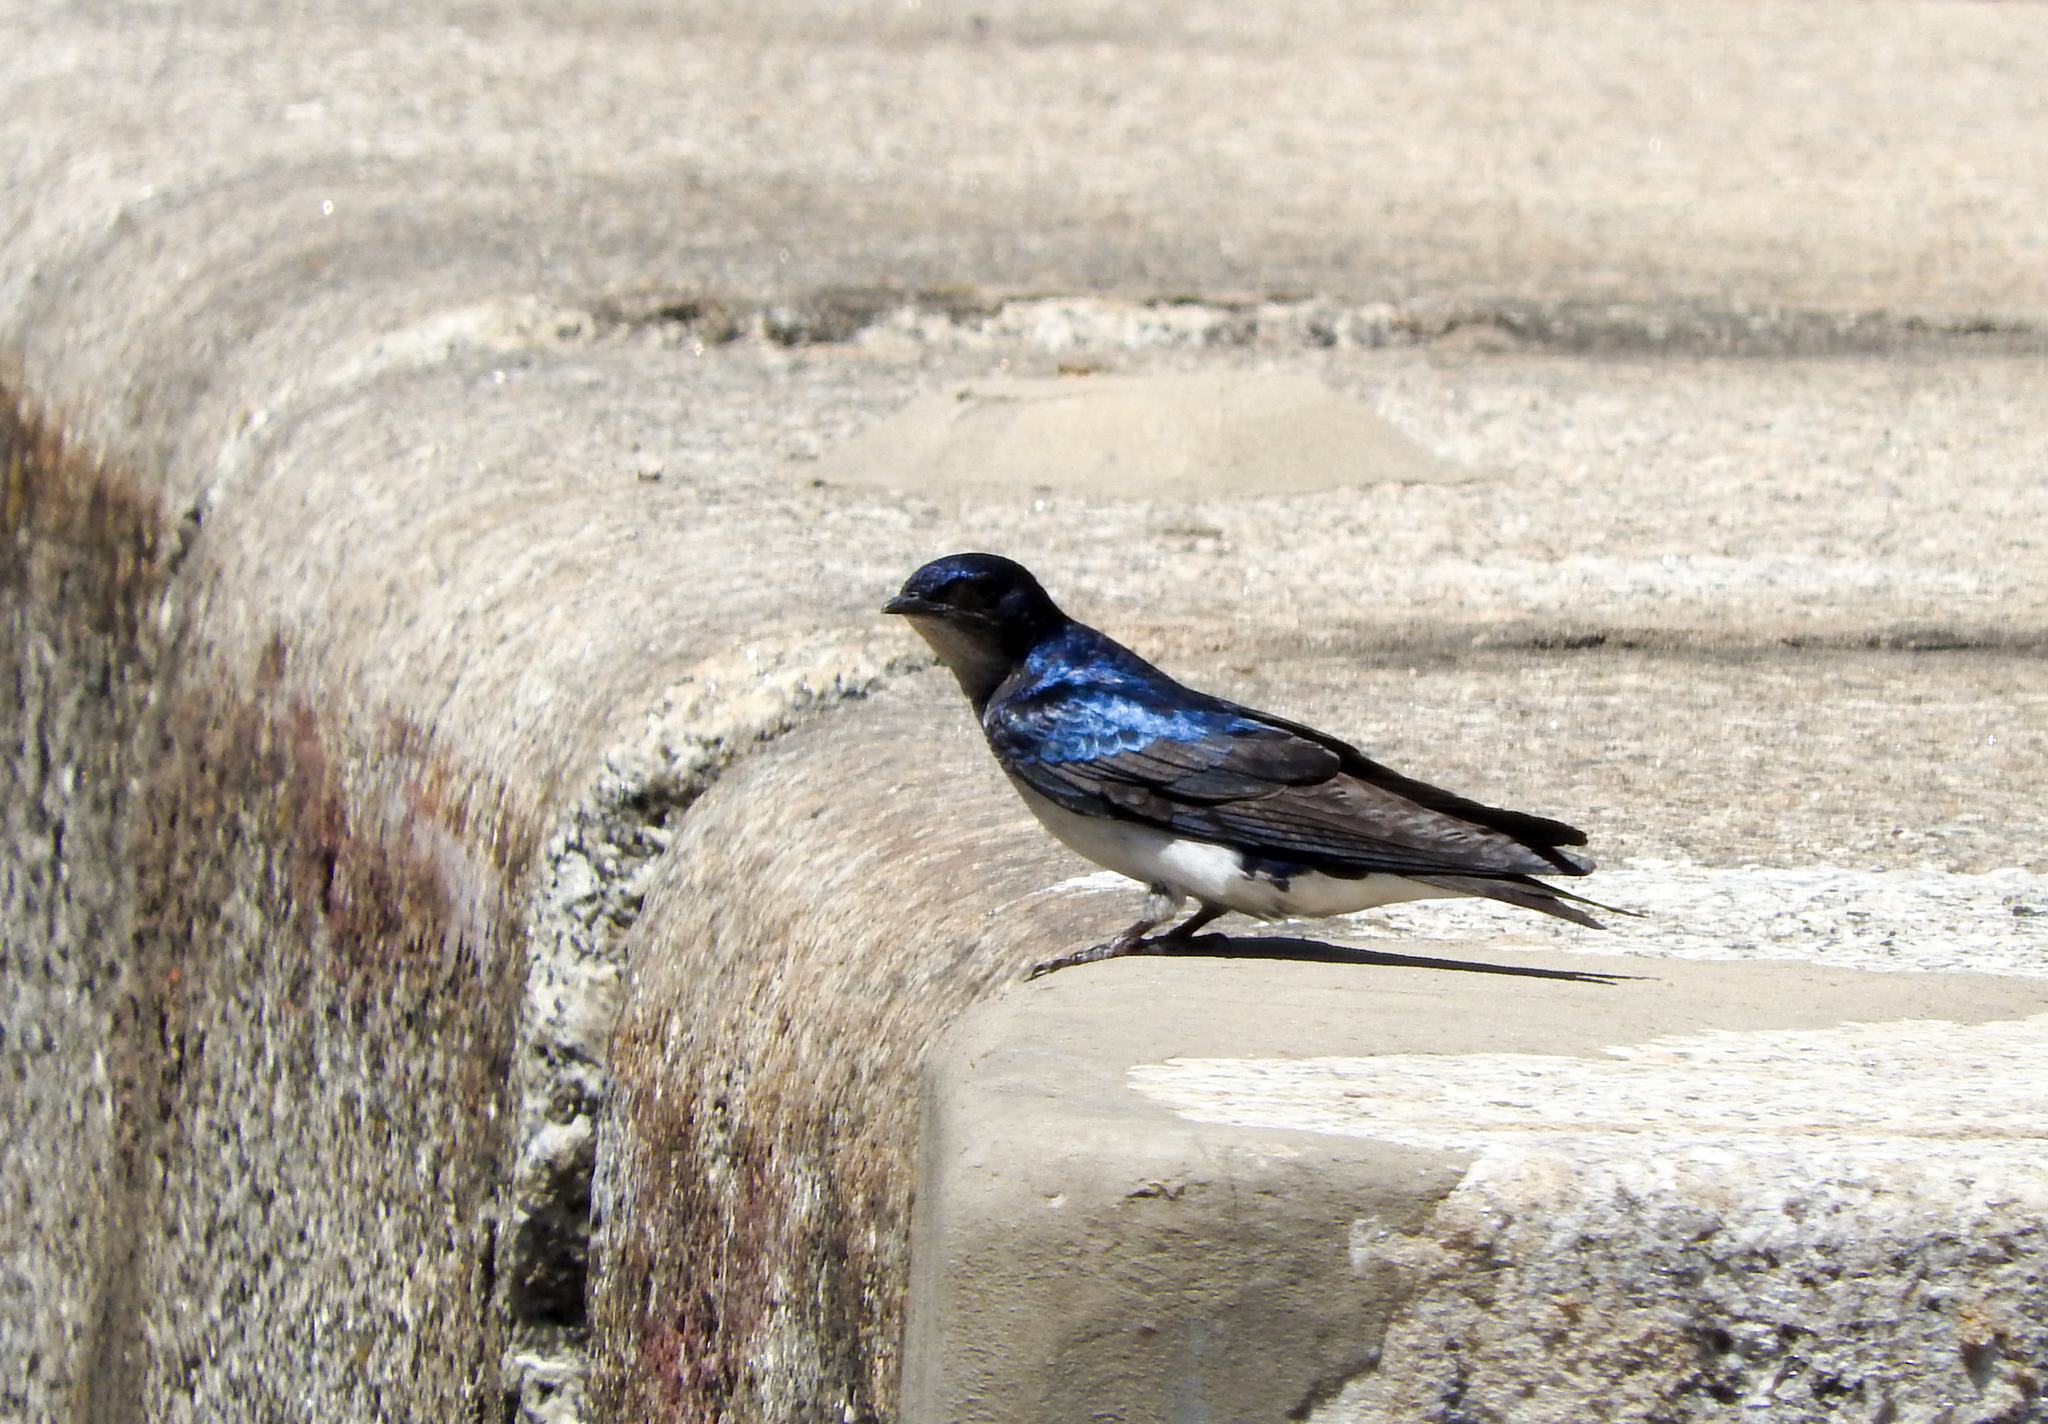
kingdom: Animalia
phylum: Chordata
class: Aves
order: Passeriformes
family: Hirundinidae
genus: Progne
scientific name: Progne chalybea
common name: Grey-breasted martin
